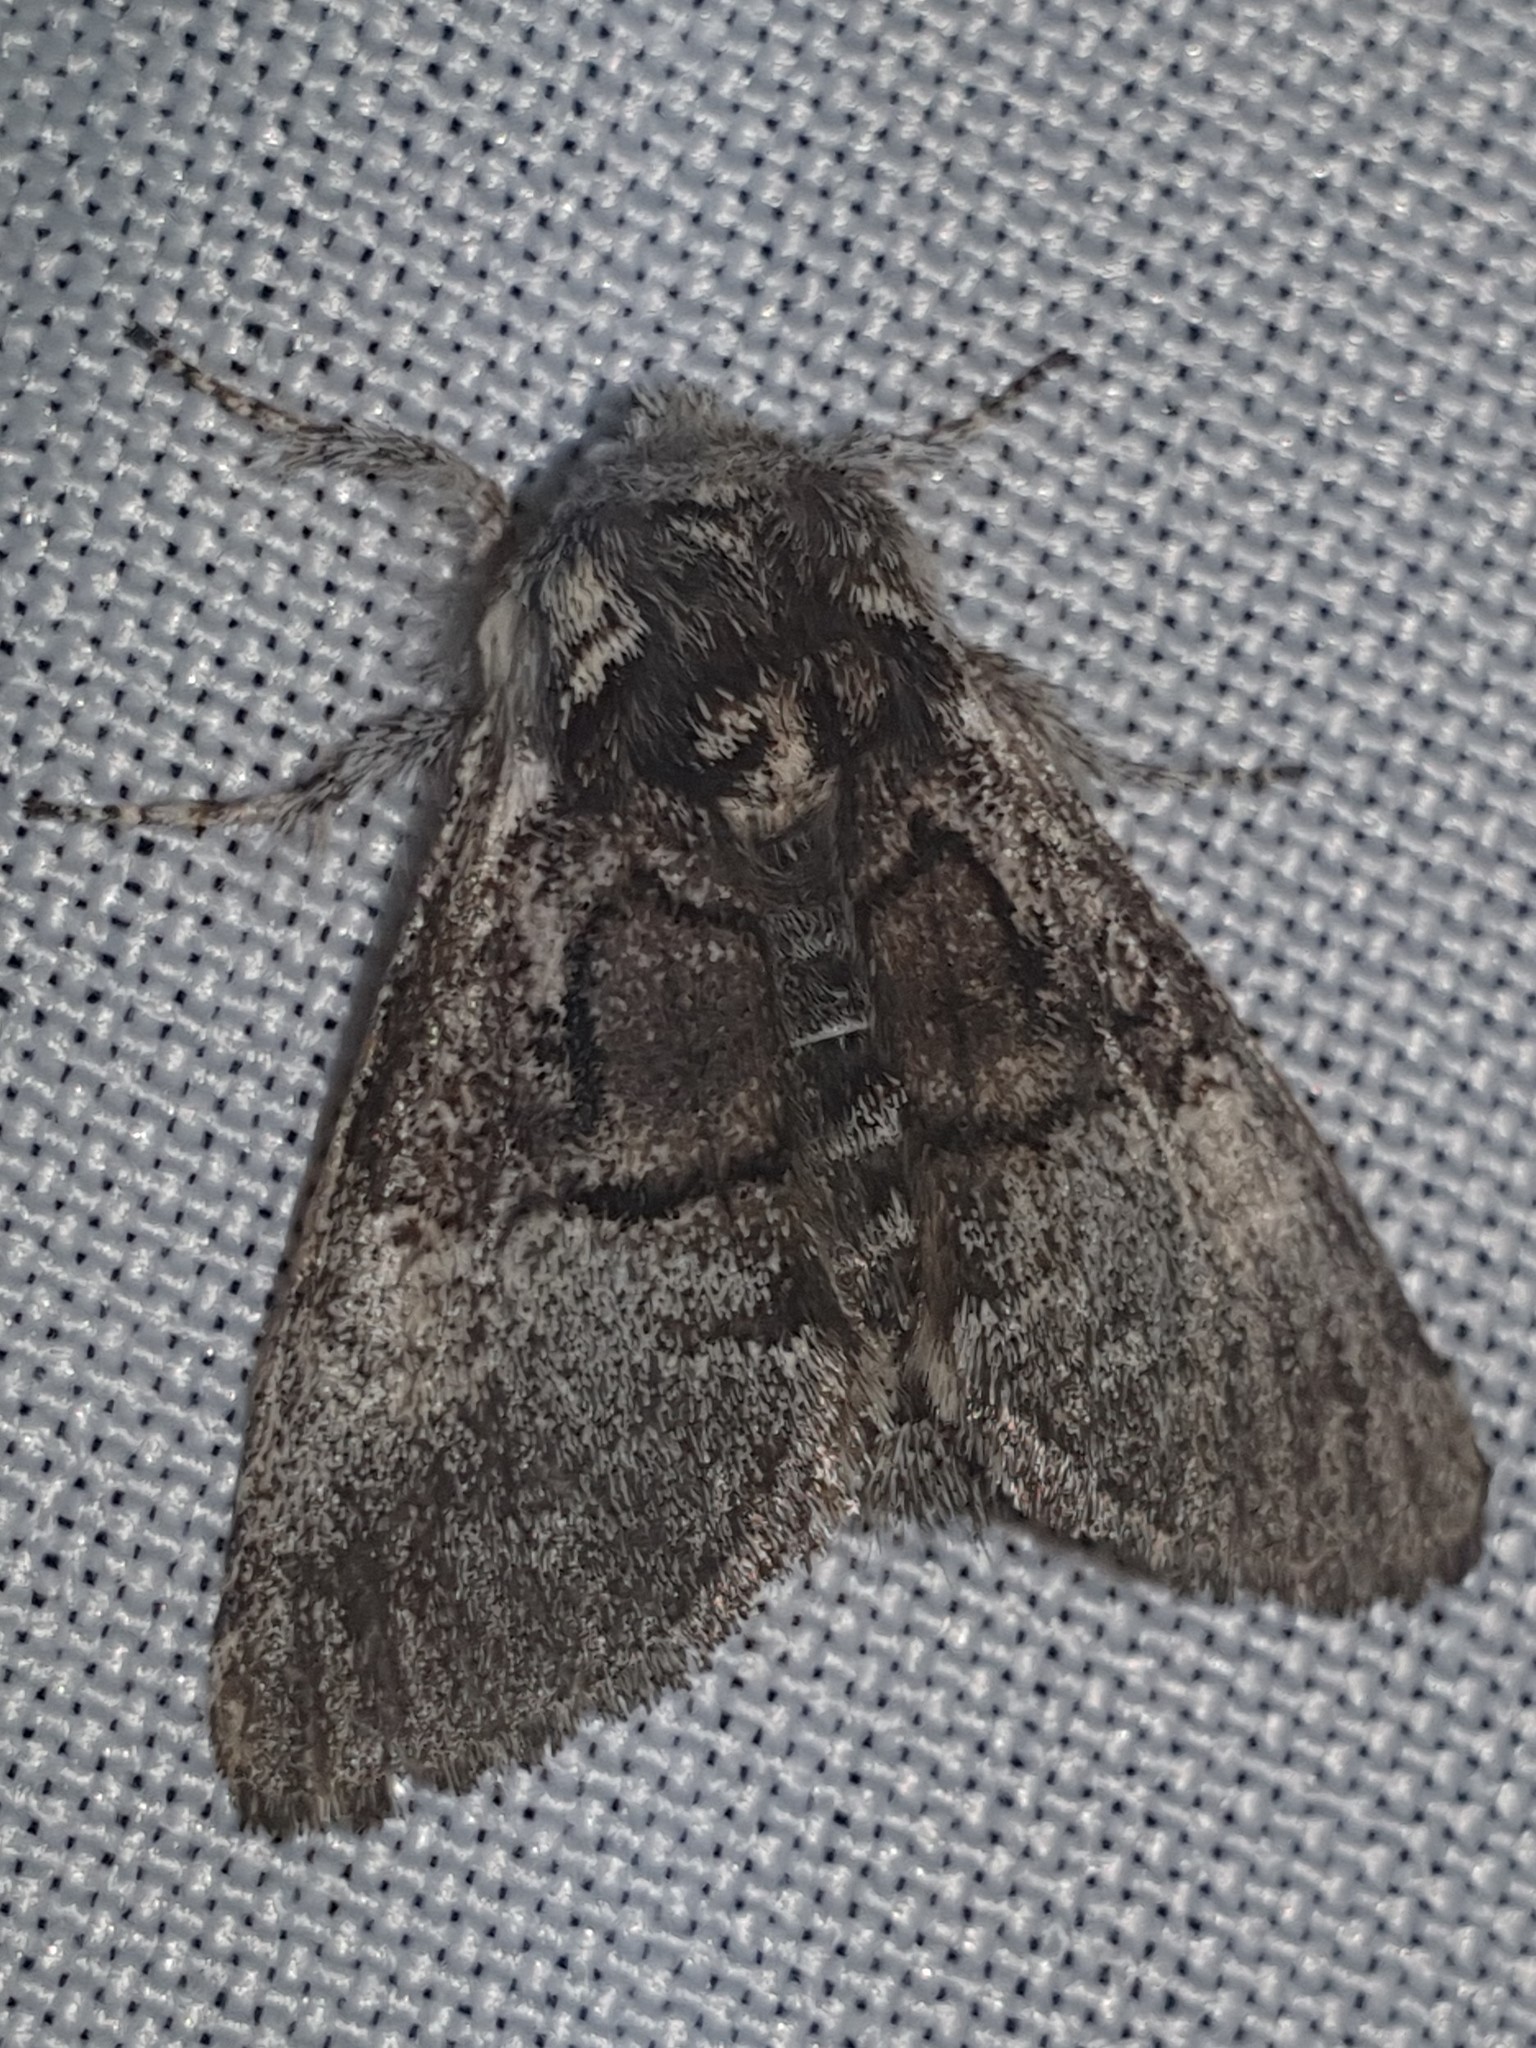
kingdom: Animalia
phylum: Arthropoda
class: Insecta
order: Lepidoptera
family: Noctuidae
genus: Colocasia
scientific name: Colocasia coryli
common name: Nut-tree tussock
